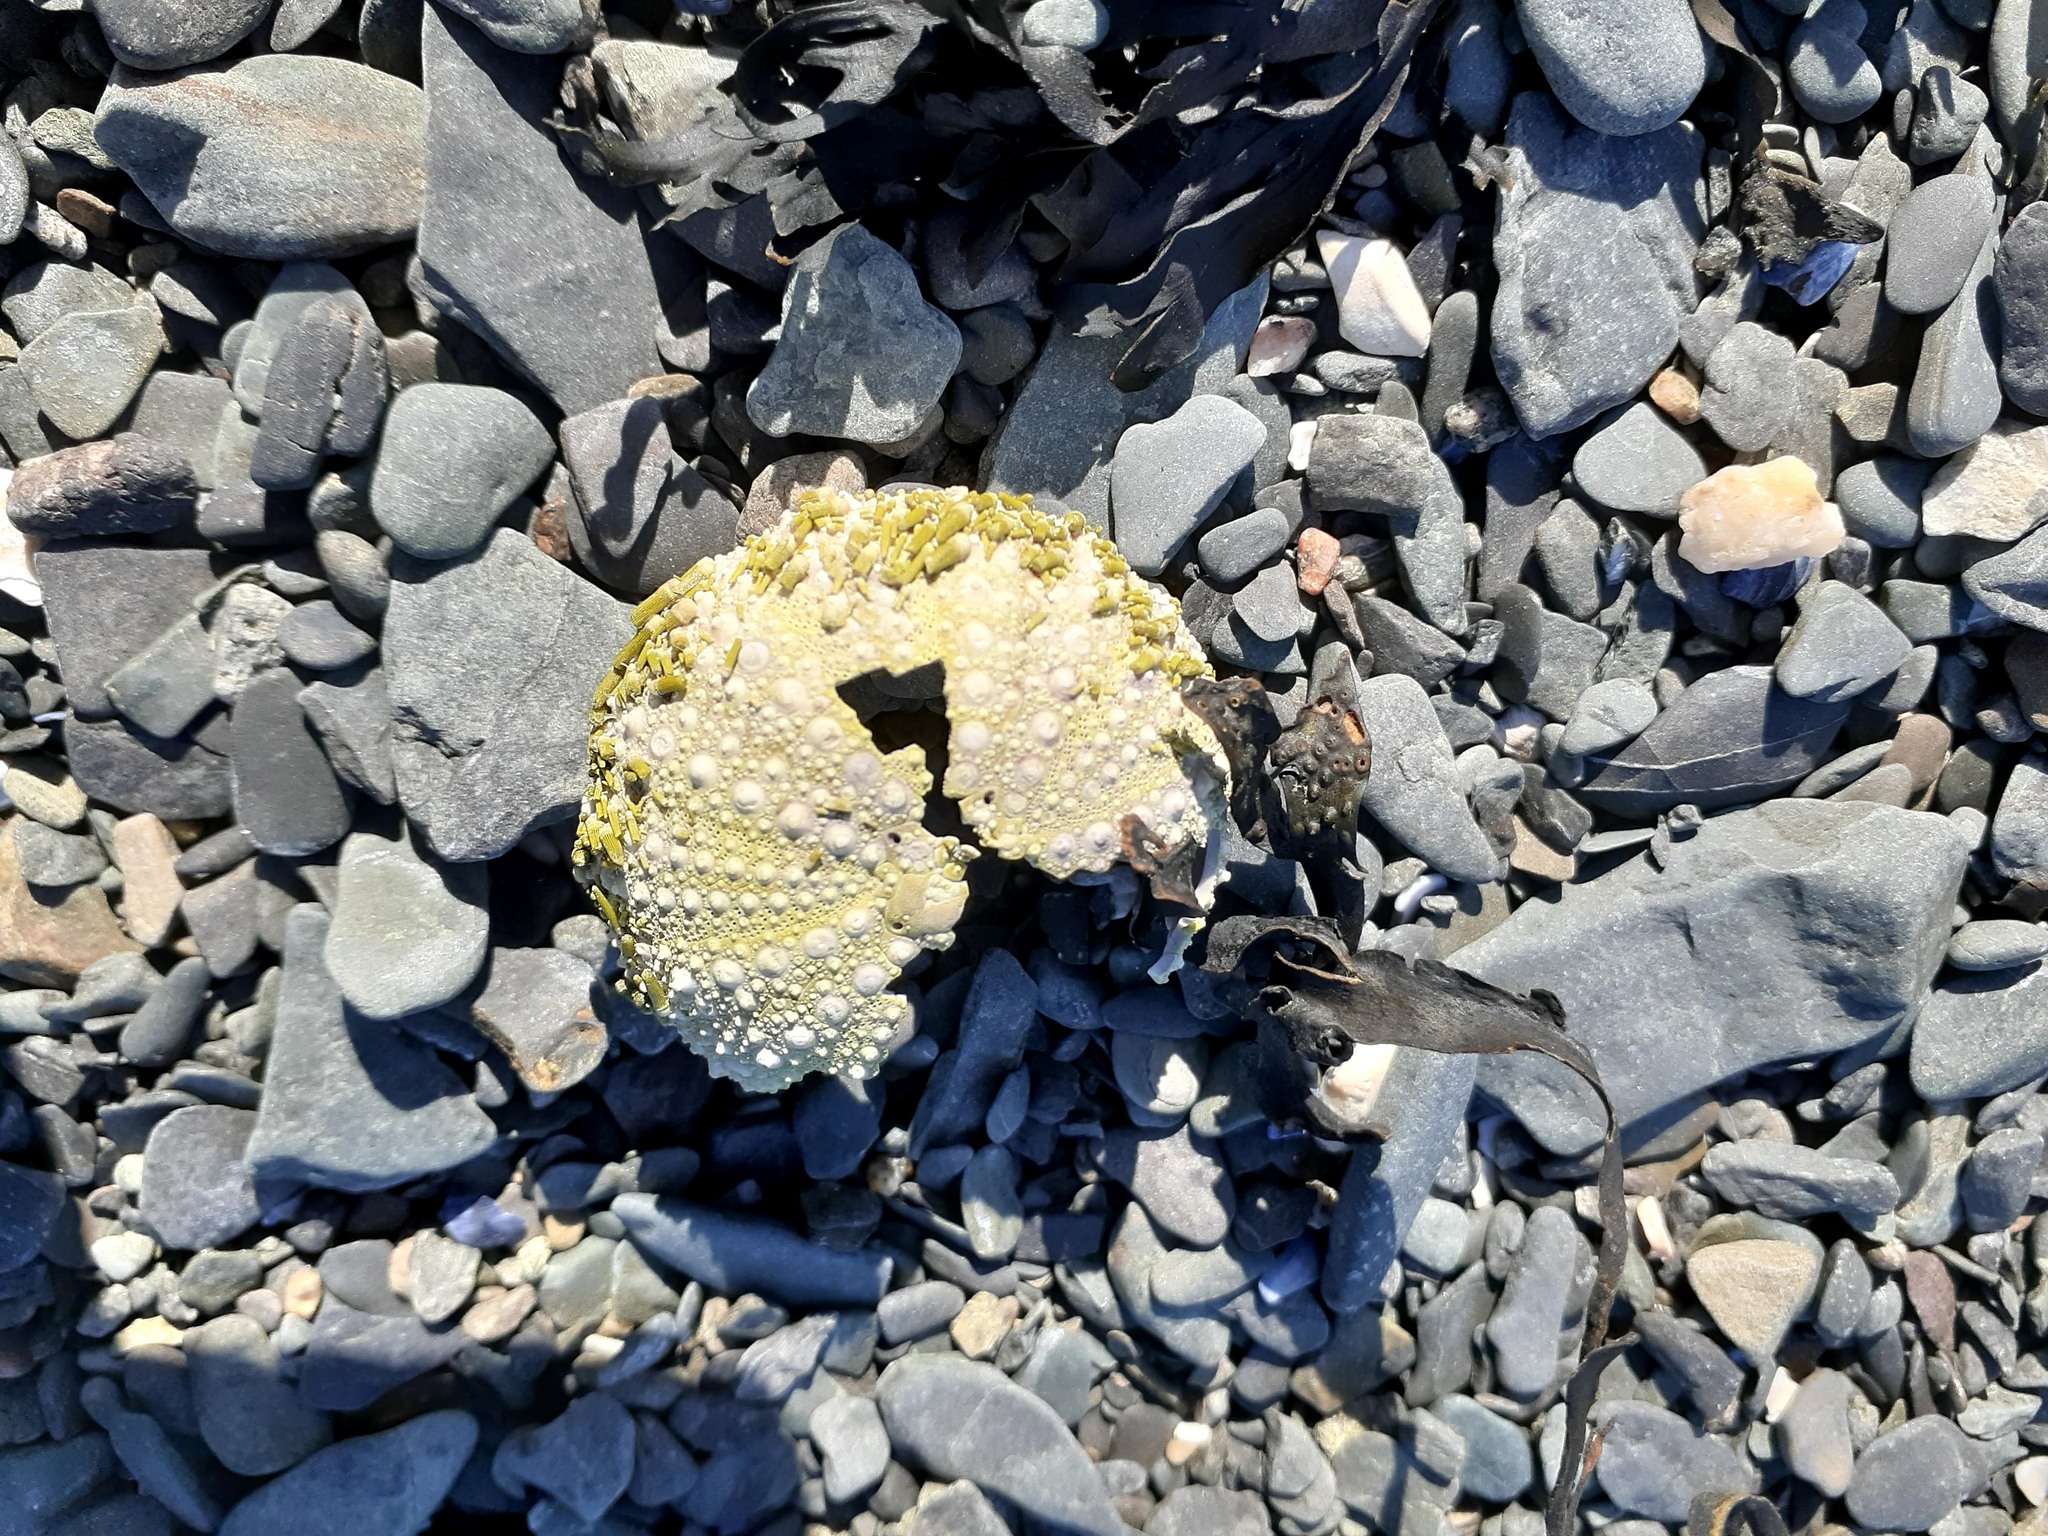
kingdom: Animalia
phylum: Echinodermata
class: Echinoidea
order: Camarodonta
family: Strongylocentrotidae
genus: Strongylocentrotus
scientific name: Strongylocentrotus droebachiensis
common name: Northern sea urchin
